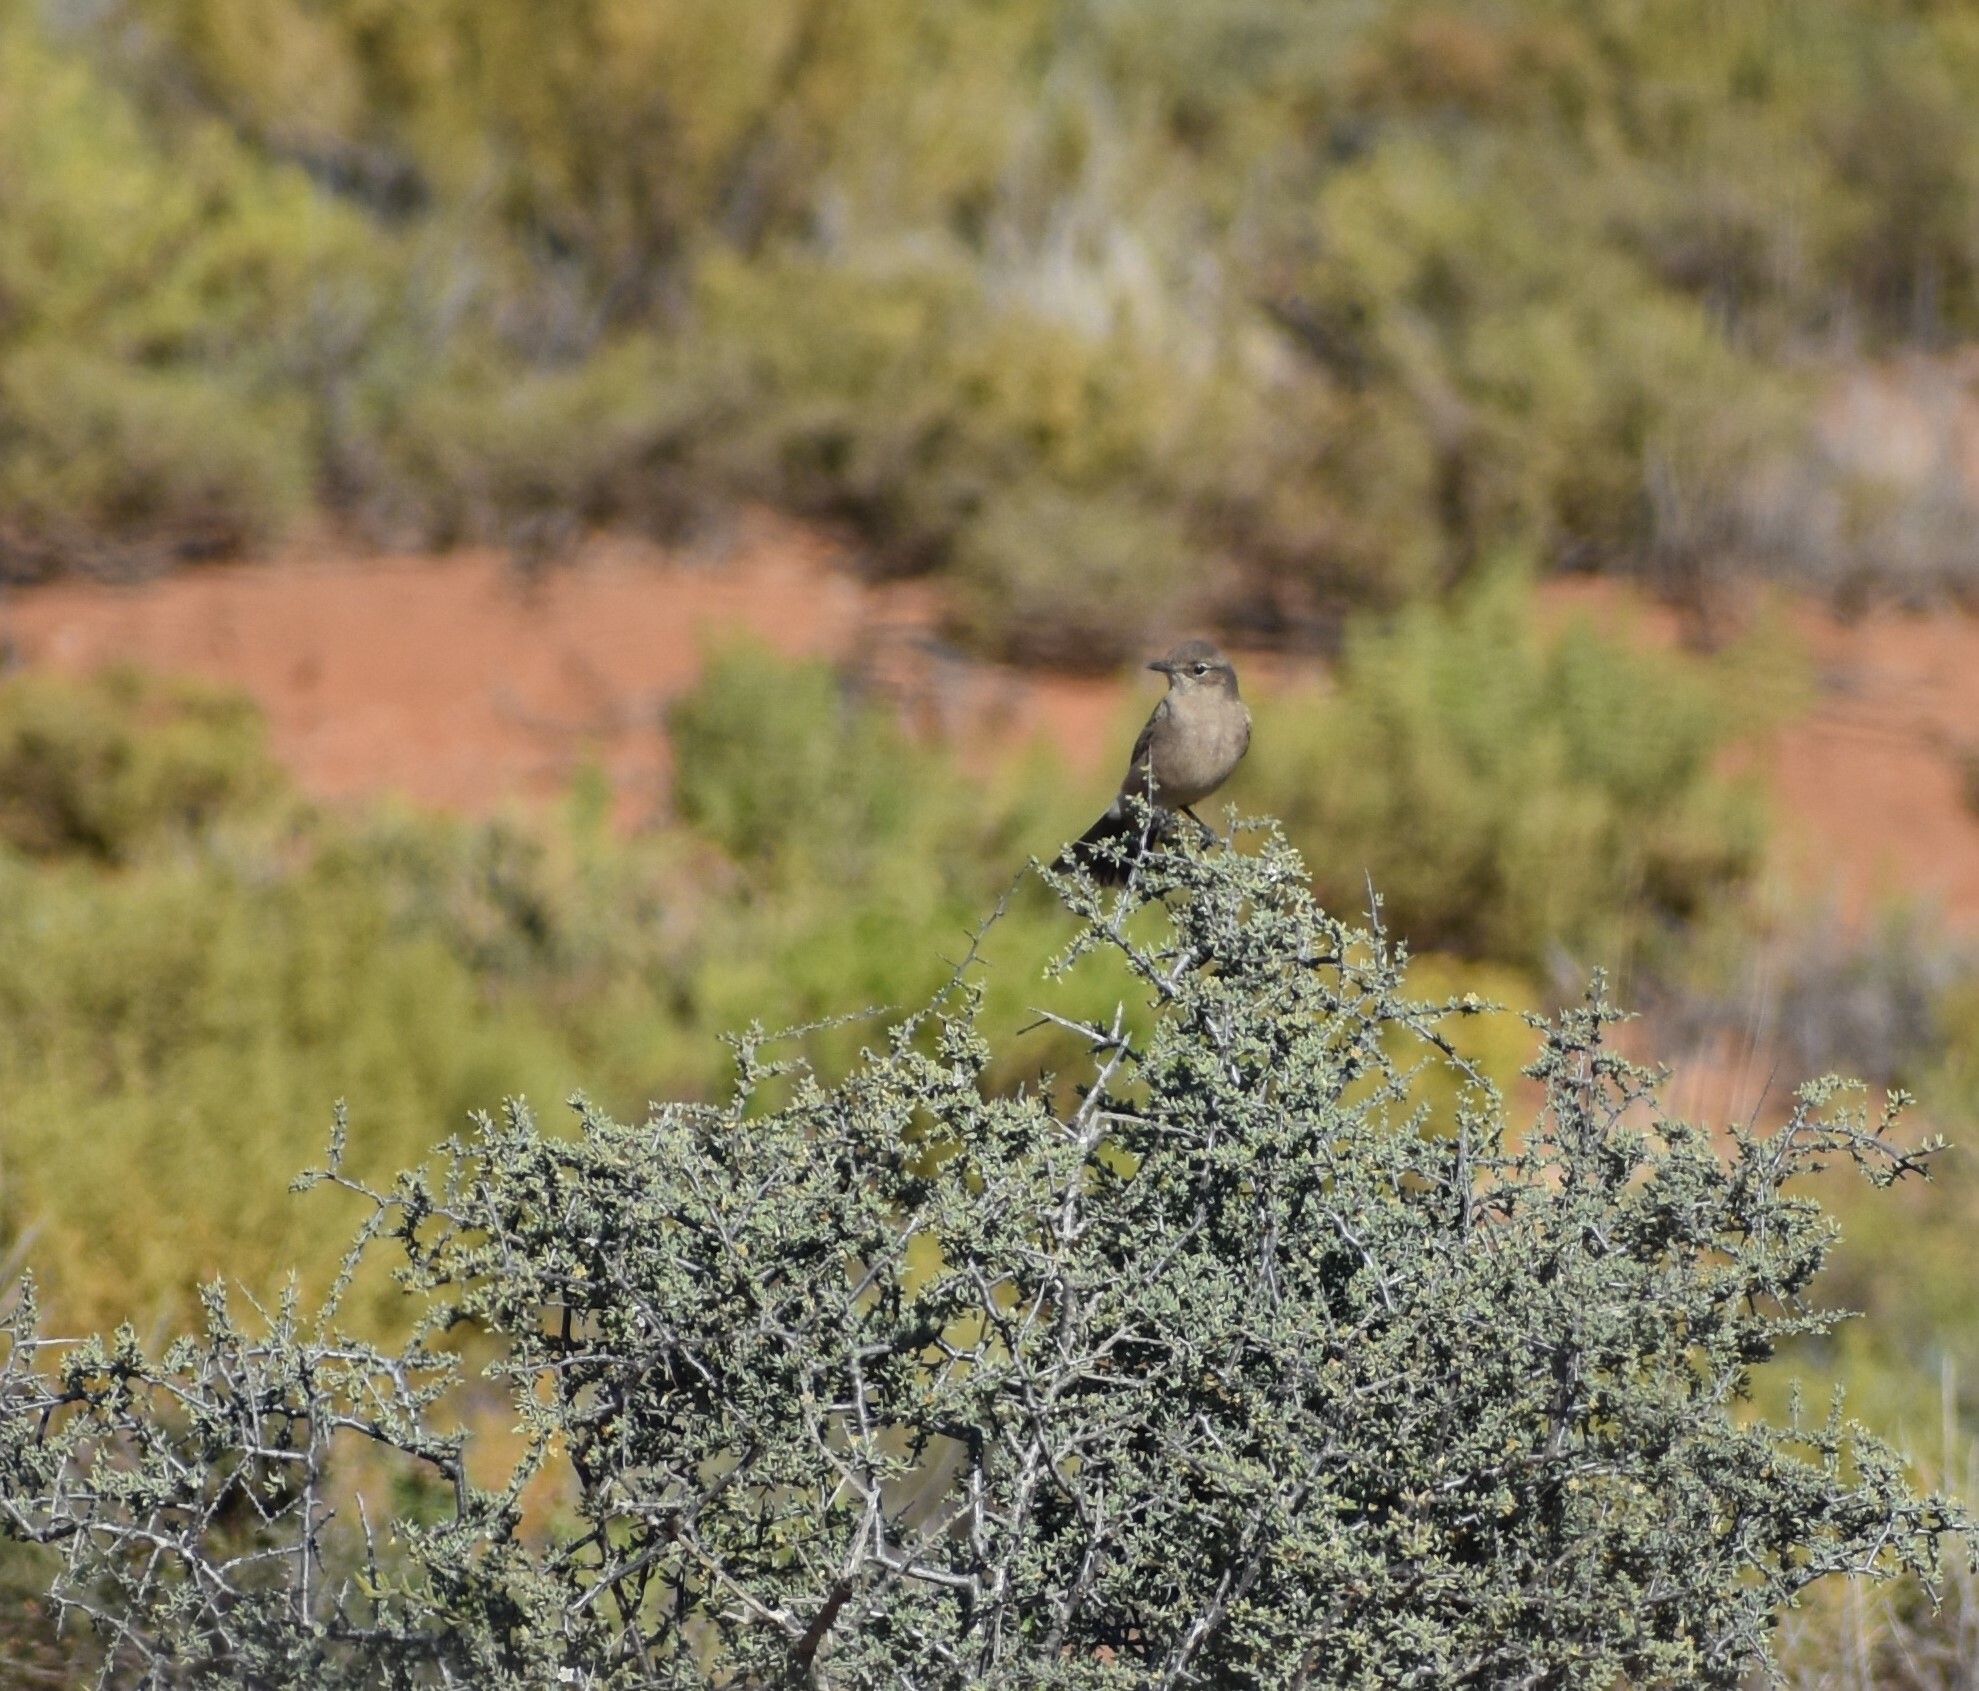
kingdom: Animalia
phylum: Chordata
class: Aves
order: Passeriformes
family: Muscicapidae
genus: Bradornis
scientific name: Bradornis infuscatus
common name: Chat flycatcher
